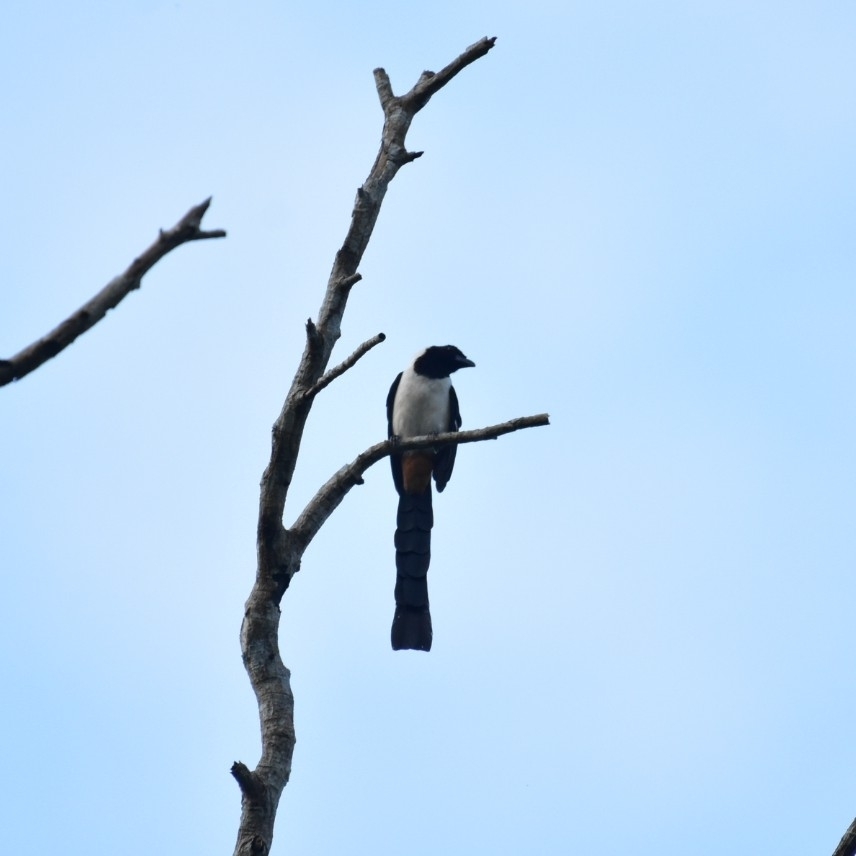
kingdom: Animalia
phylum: Chordata
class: Aves
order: Passeriformes
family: Corvidae
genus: Dendrocitta
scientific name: Dendrocitta leucogastra
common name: White-bellied treepie
